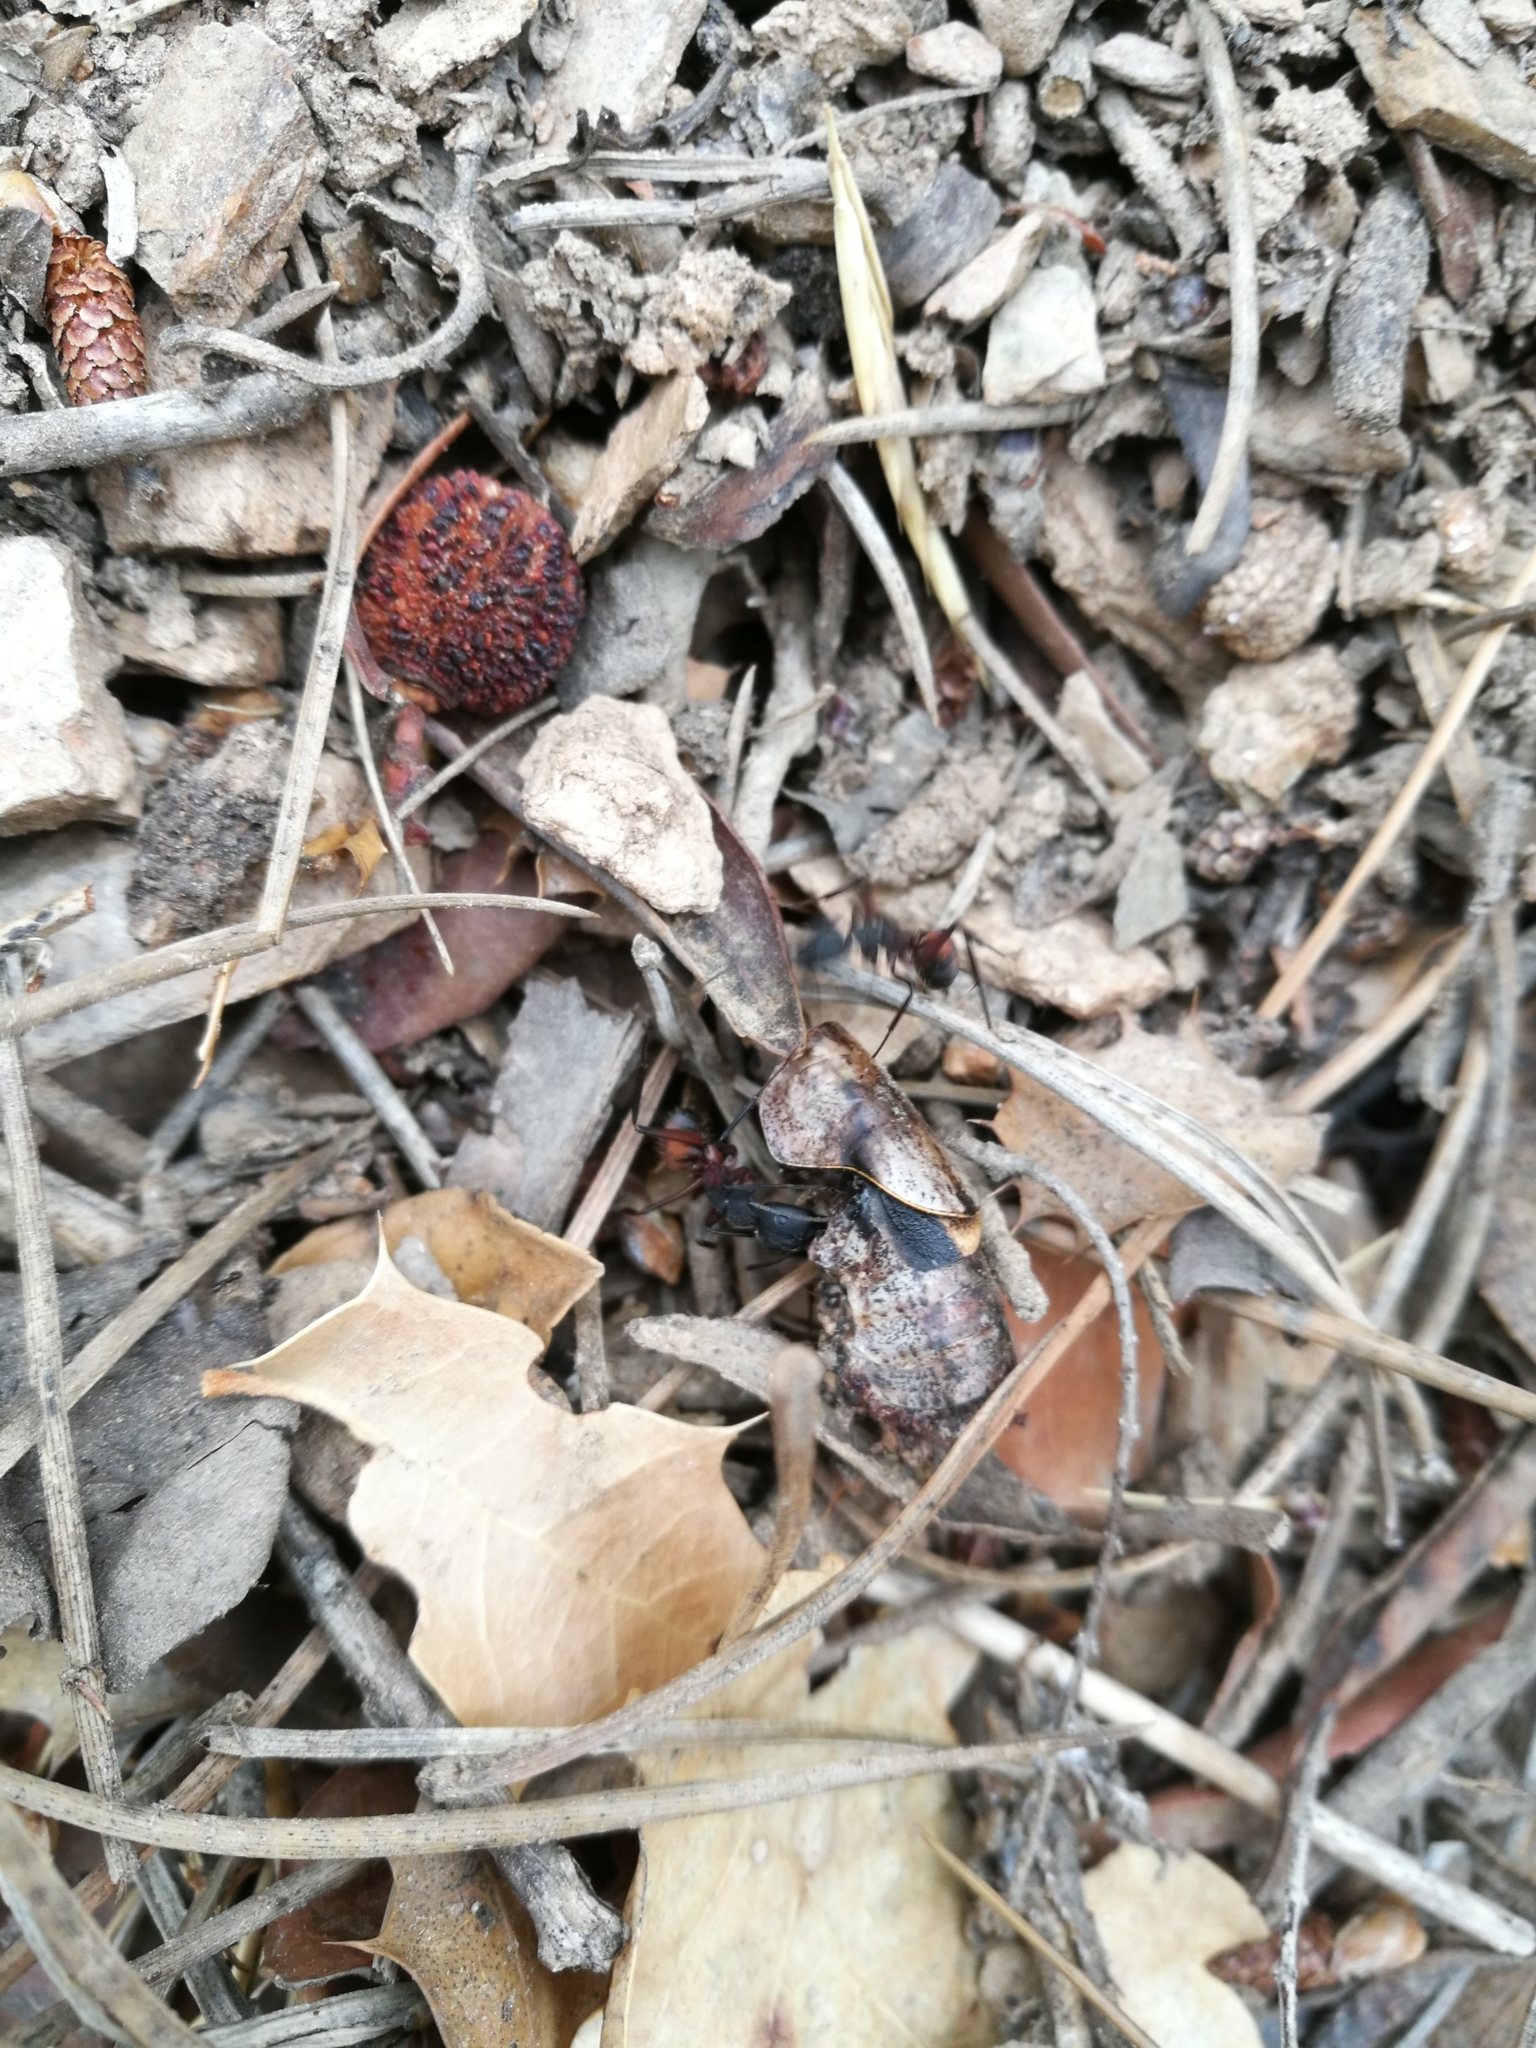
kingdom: Animalia
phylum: Arthropoda
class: Insecta
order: Hymenoptera
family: Formicidae
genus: Camponotus
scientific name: Camponotus cruentatus
